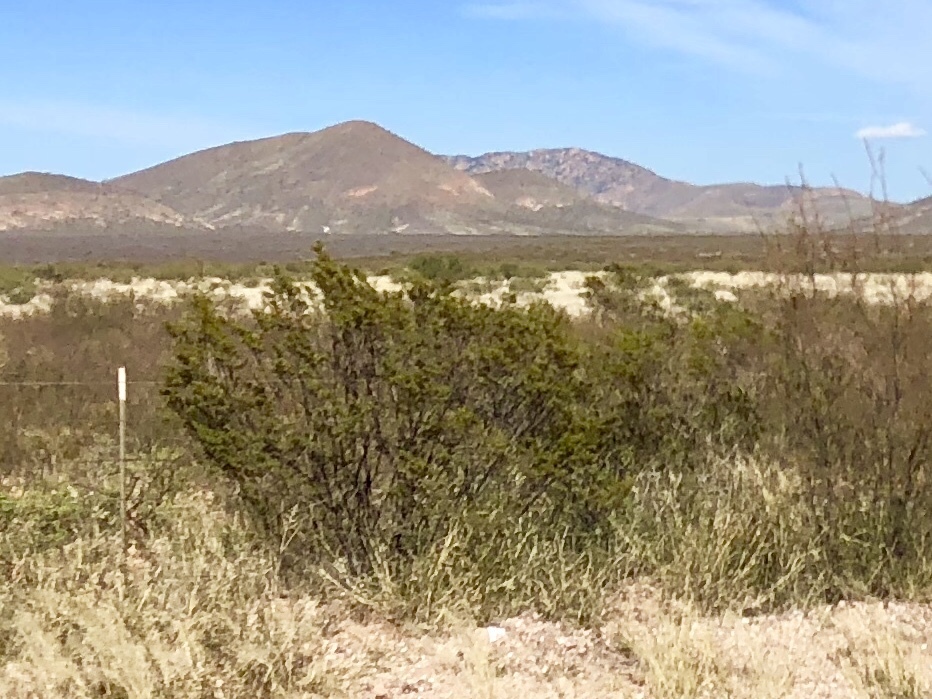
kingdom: Plantae
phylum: Tracheophyta
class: Magnoliopsida
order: Zygophyllales
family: Zygophyllaceae
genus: Larrea
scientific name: Larrea tridentata
